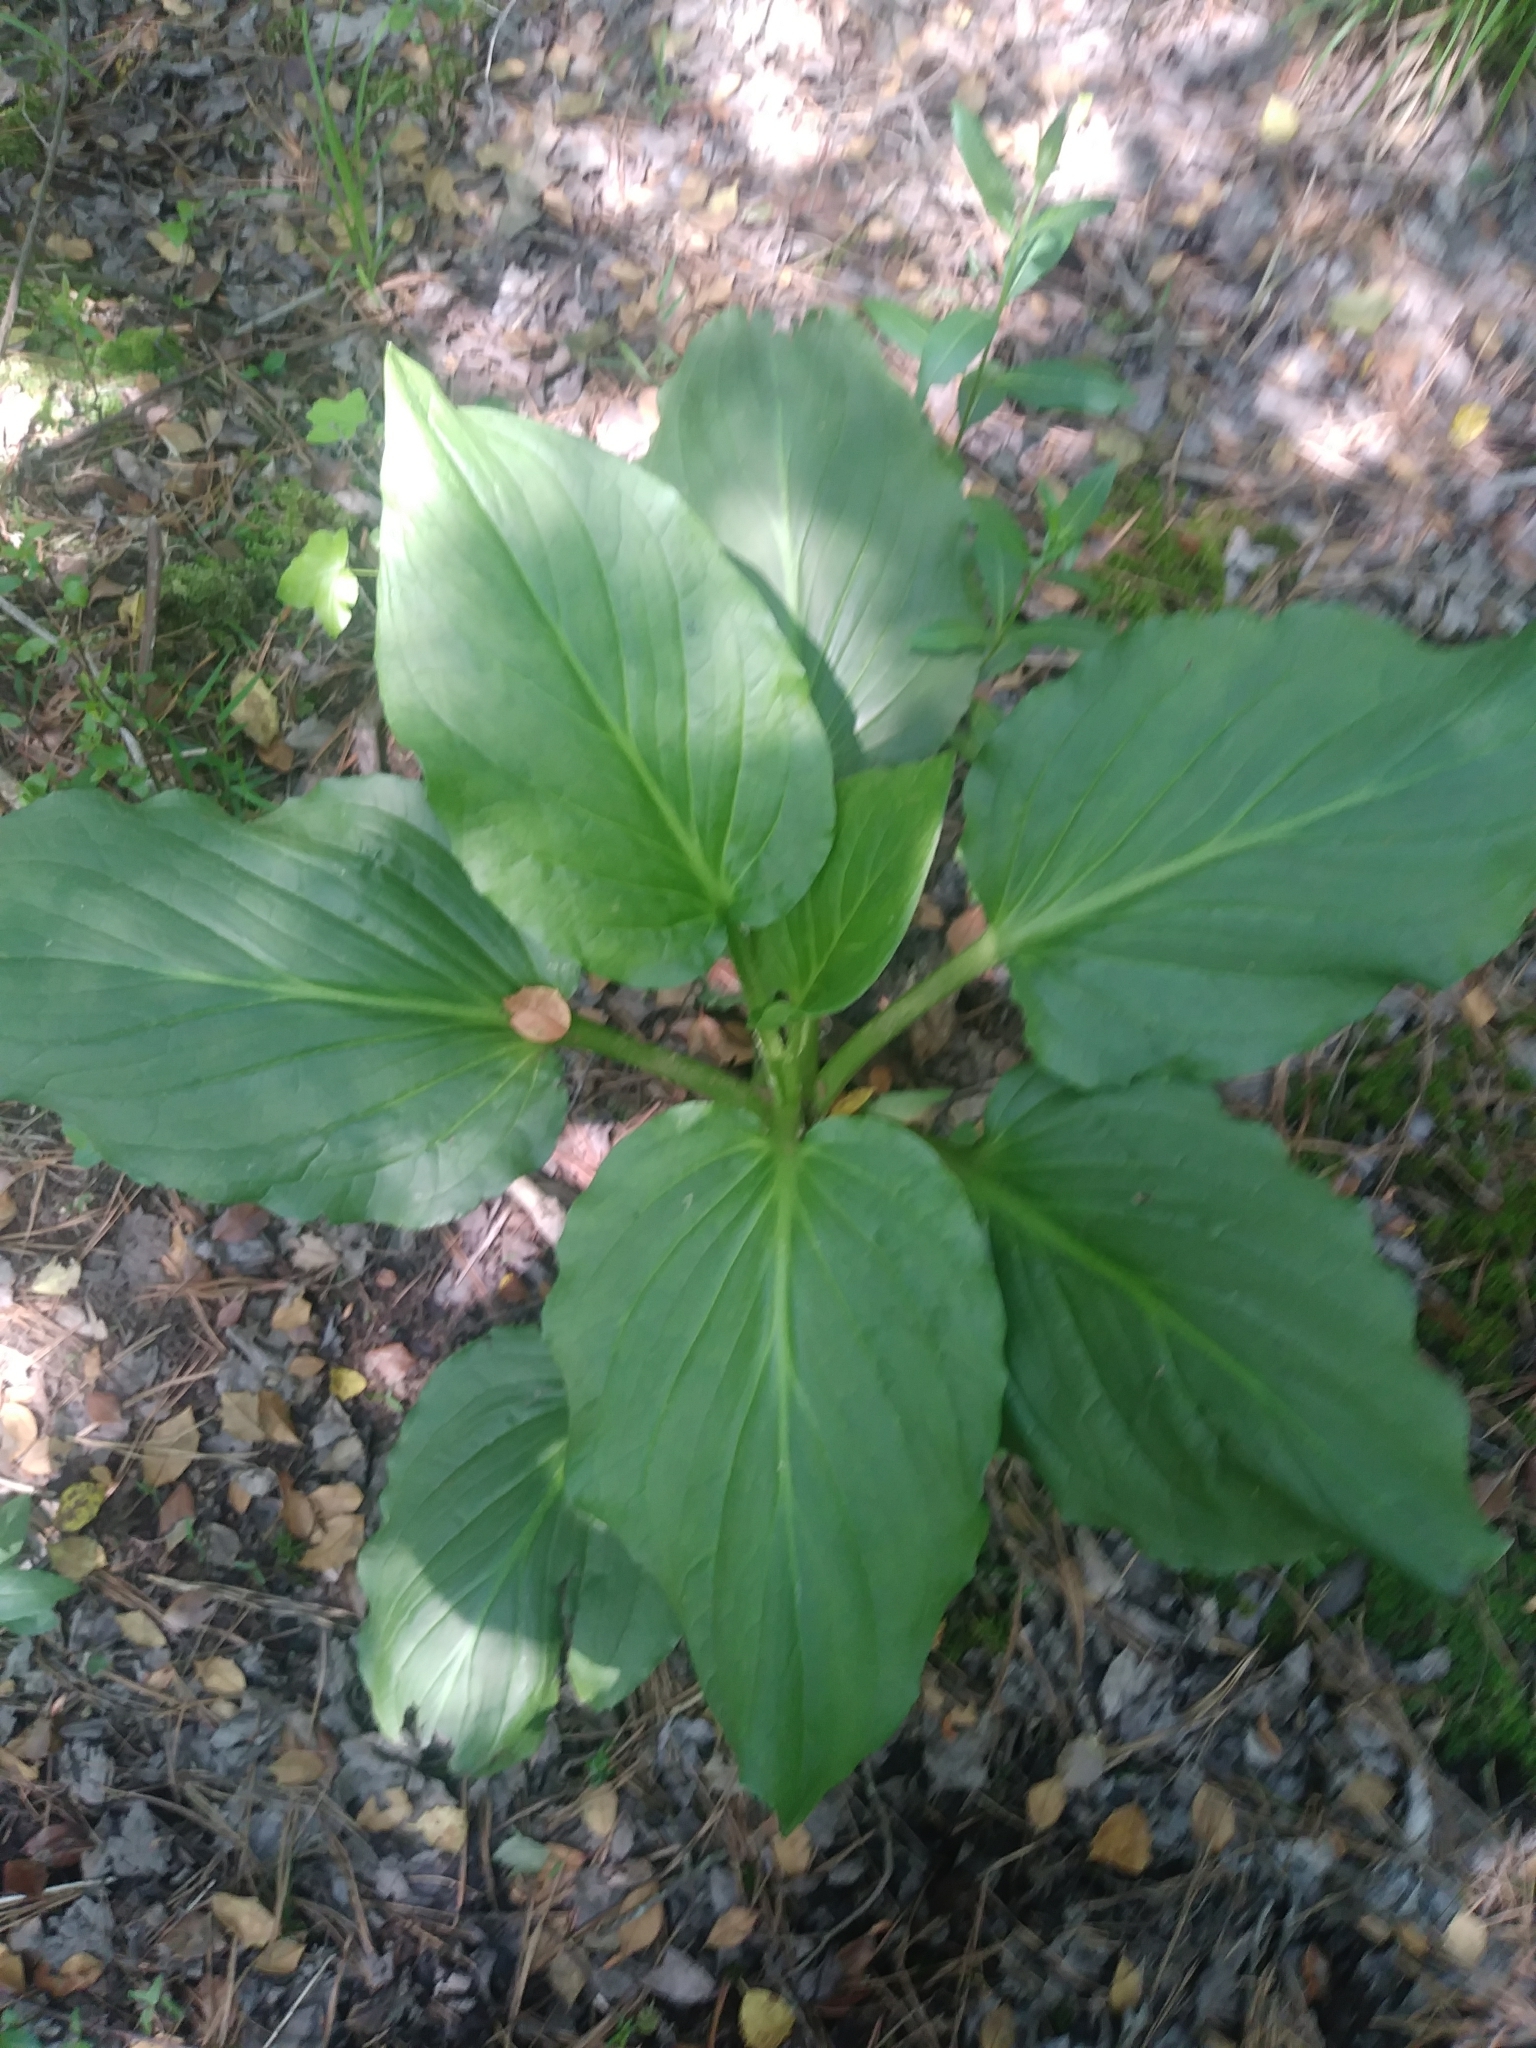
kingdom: Plantae
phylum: Tracheophyta
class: Liliopsida
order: Alismatales
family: Araceae
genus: Symplocarpus
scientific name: Symplocarpus foetidus
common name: Eastern skunk cabbage
